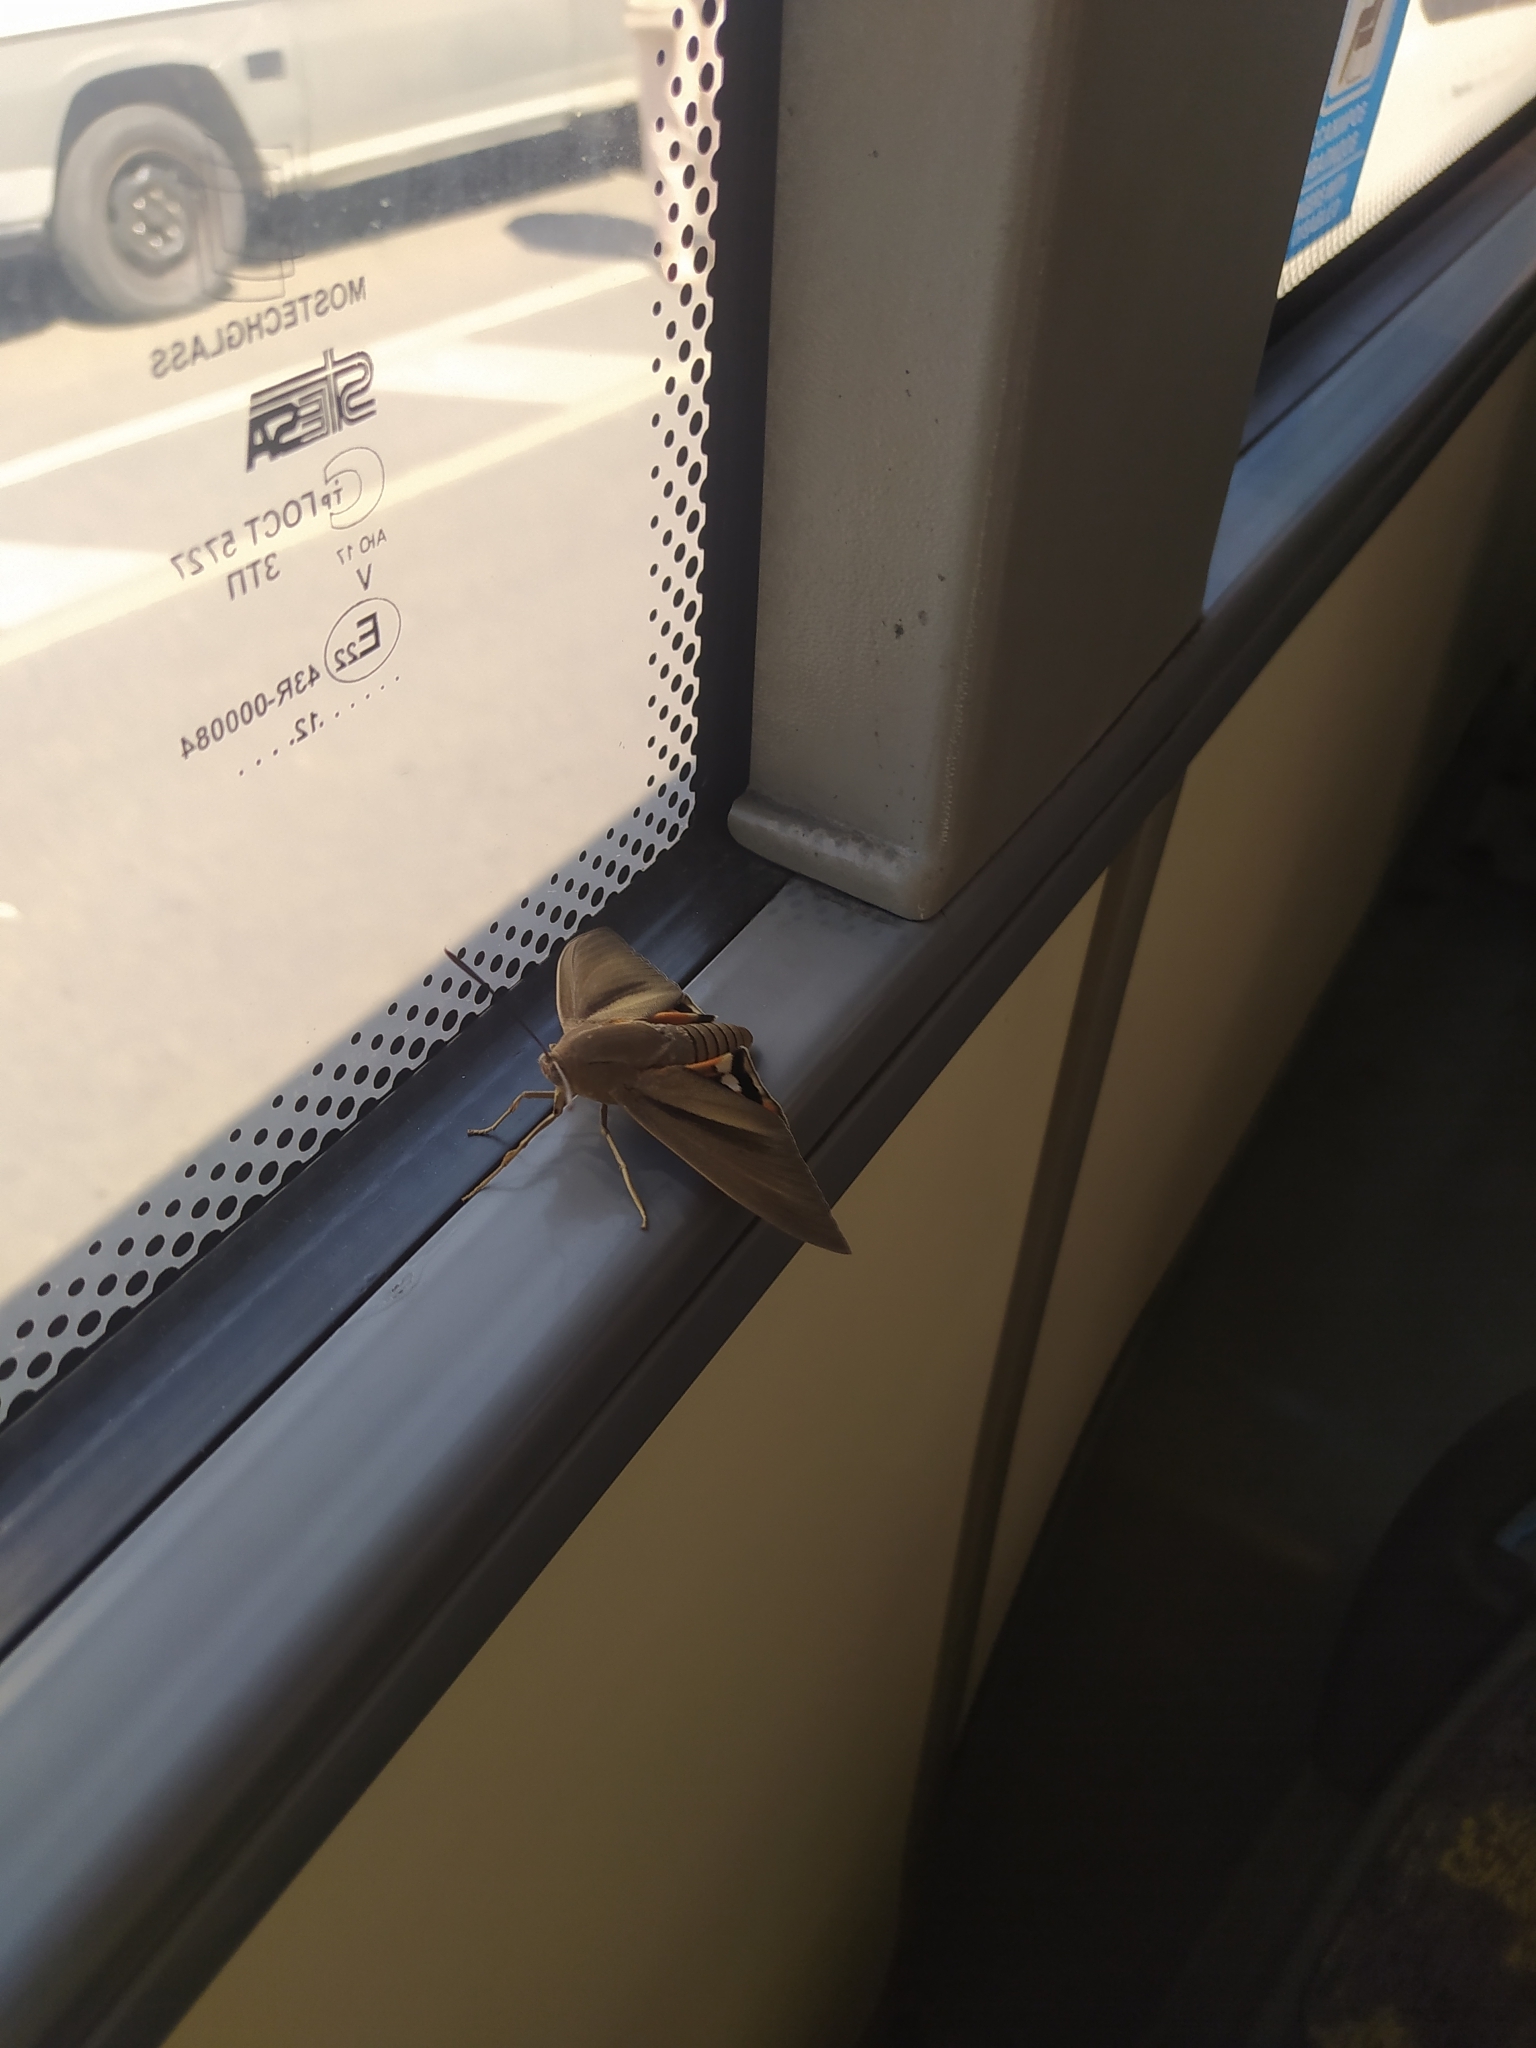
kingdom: Animalia
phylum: Arthropoda
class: Insecta
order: Lepidoptera
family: Castniidae
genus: Paysandisia
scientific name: Paysandisia archon
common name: Palm moth
